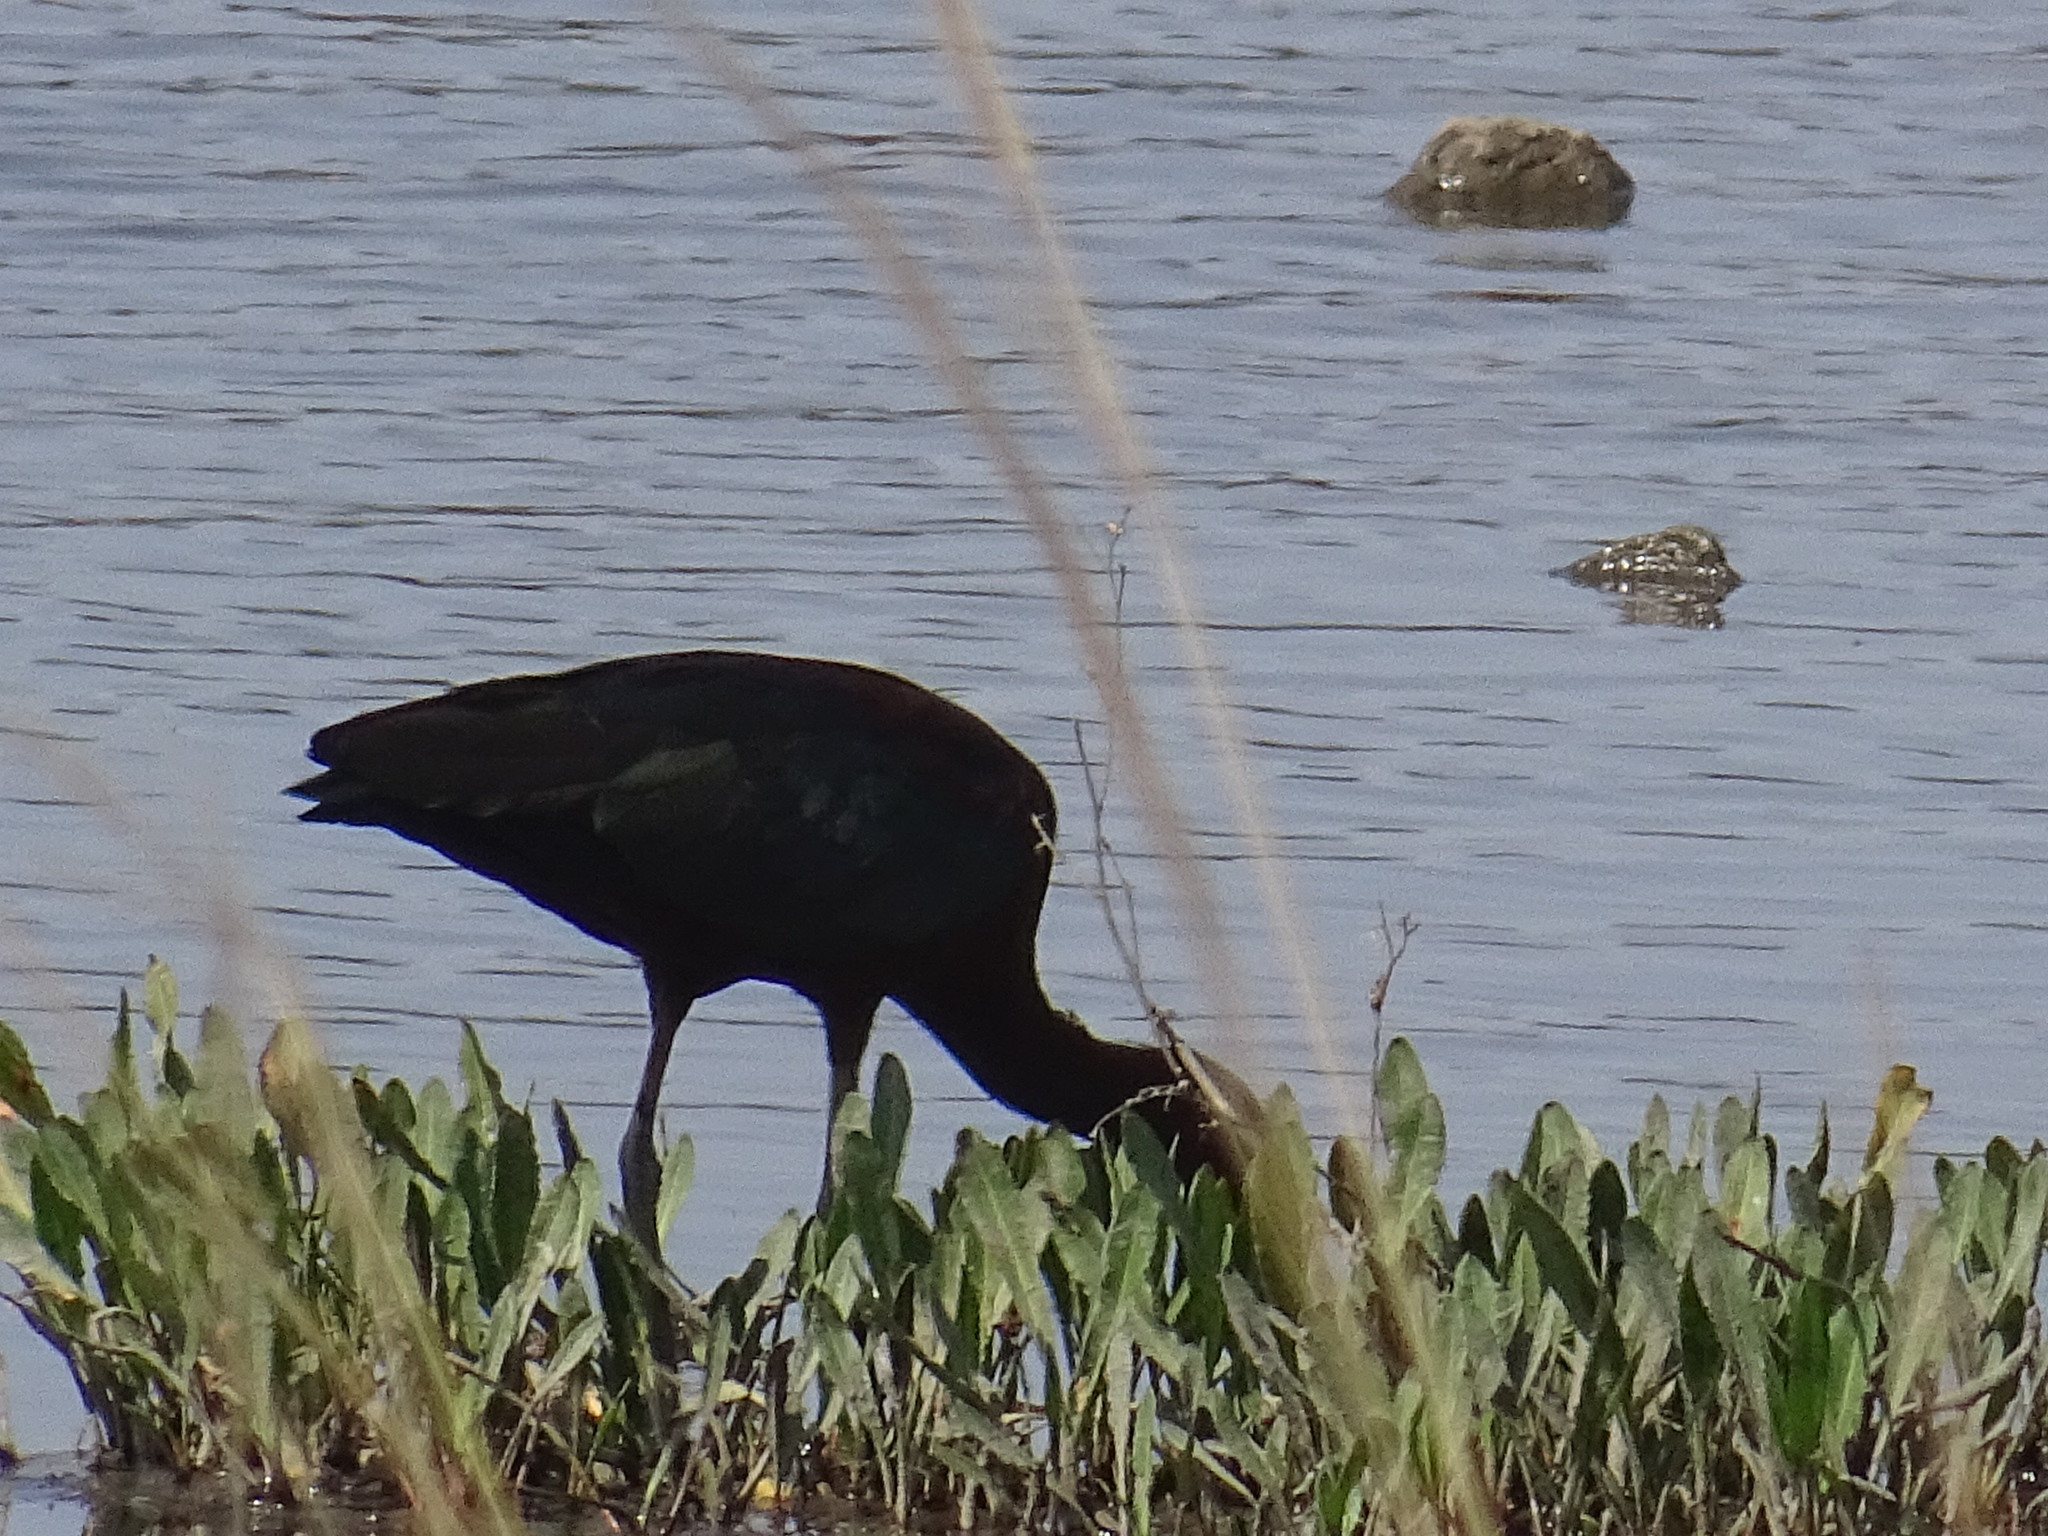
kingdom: Animalia
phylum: Chordata
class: Aves
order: Pelecaniformes
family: Threskiornithidae
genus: Plegadis
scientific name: Plegadis falcinellus
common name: Glossy ibis
